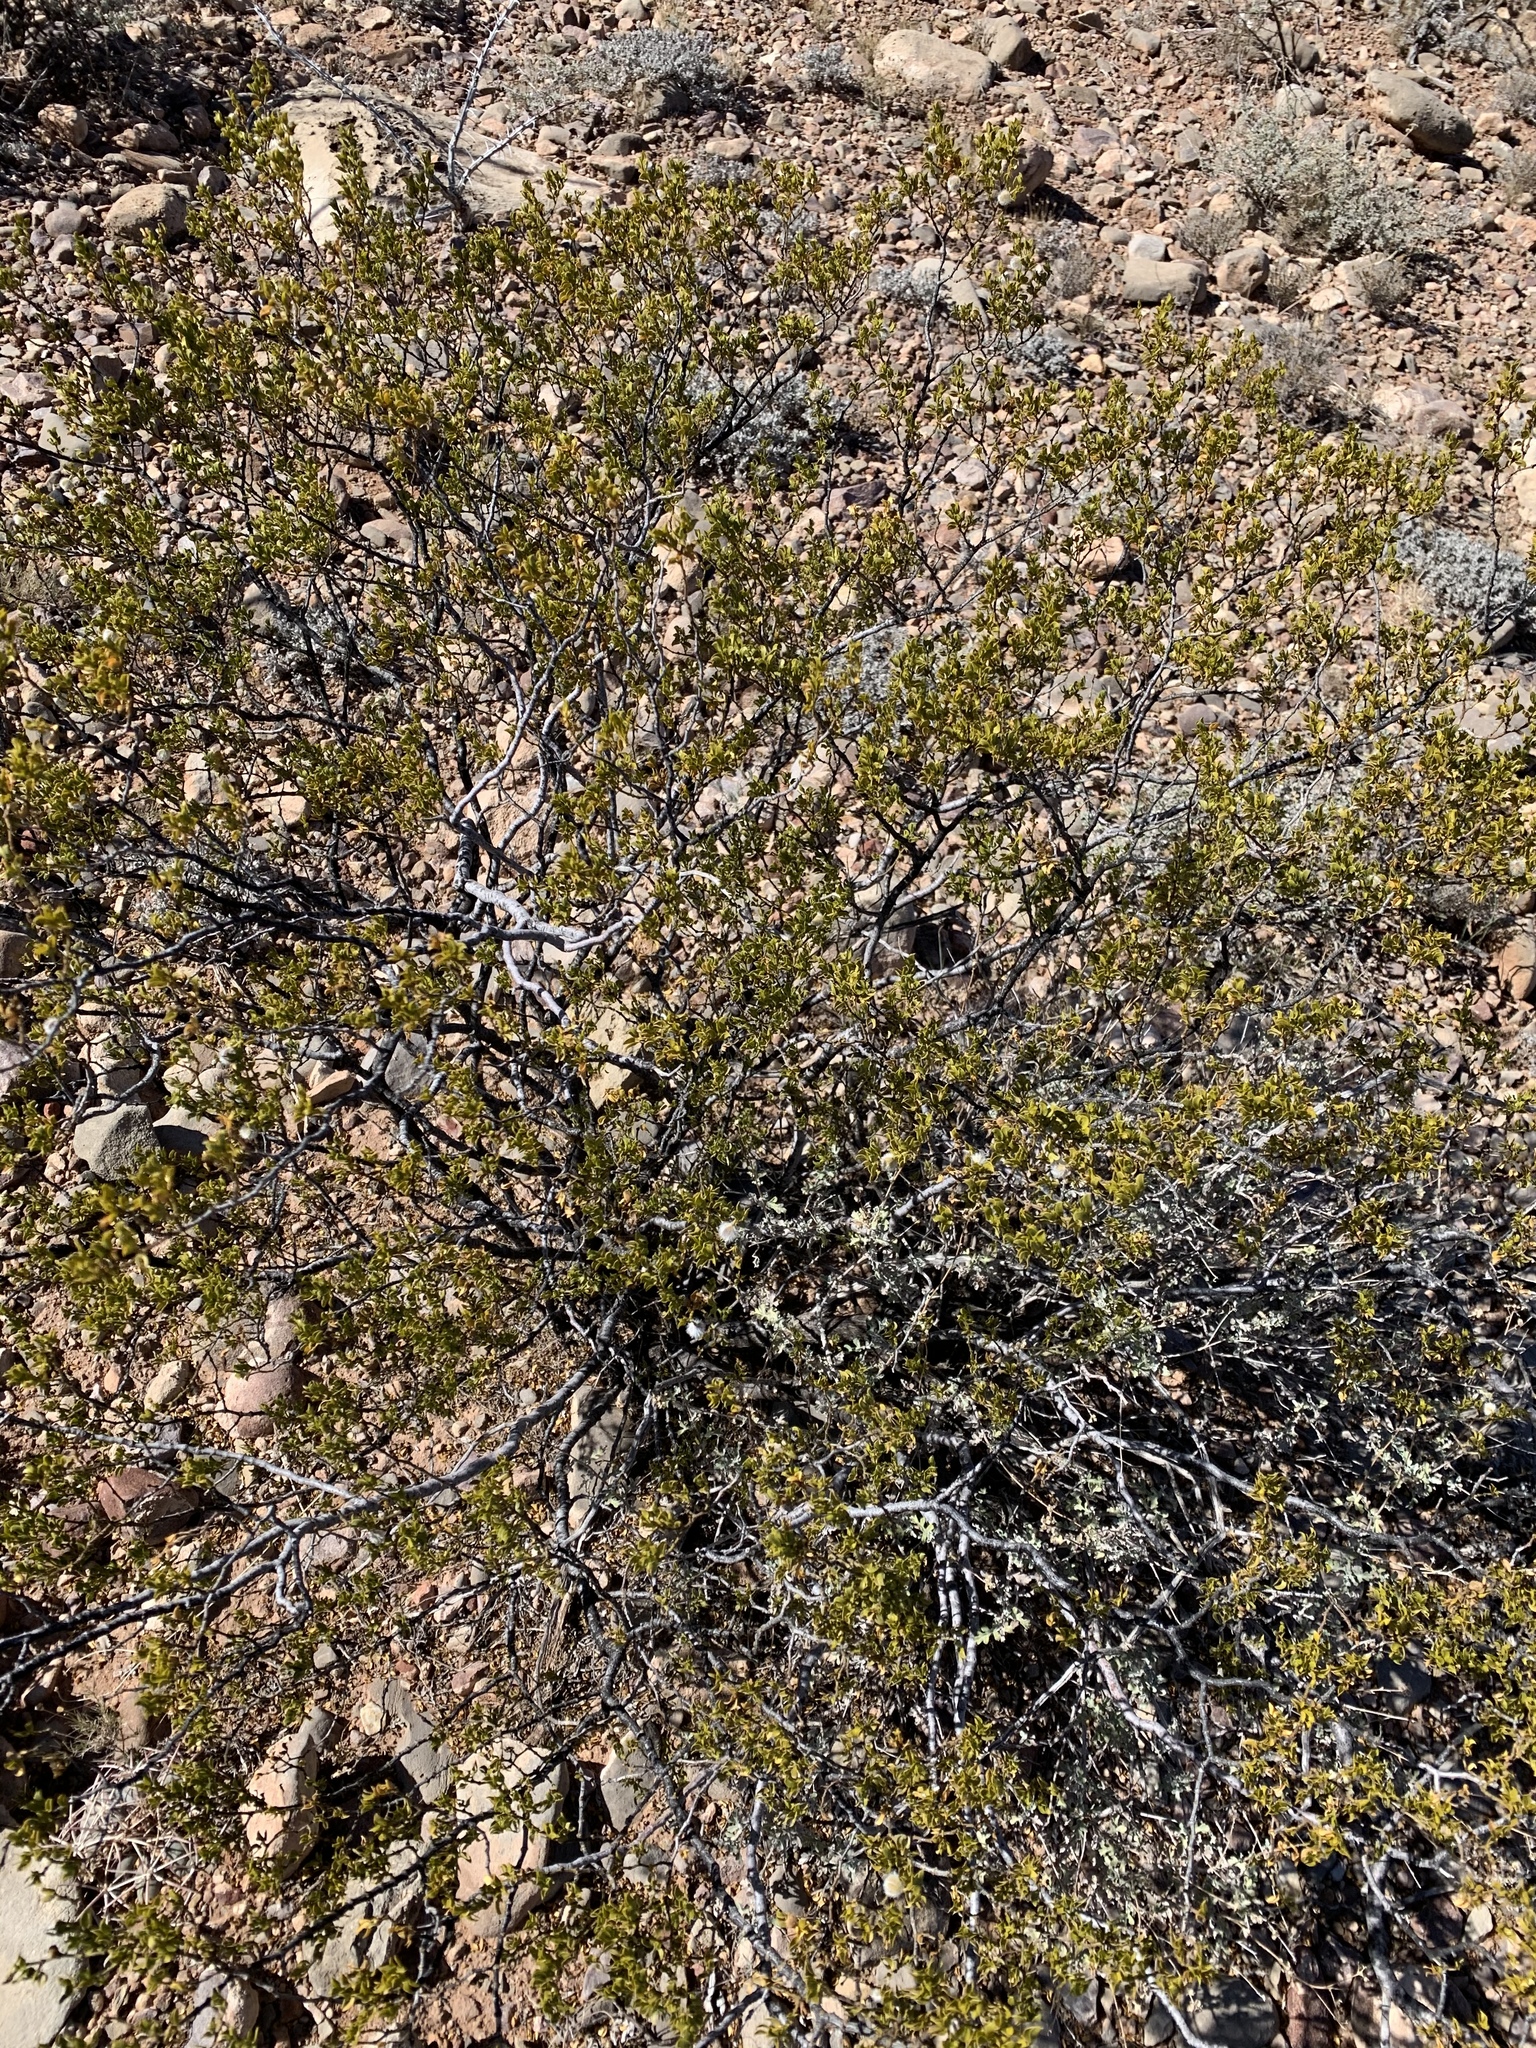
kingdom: Plantae
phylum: Tracheophyta
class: Magnoliopsida
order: Zygophyllales
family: Zygophyllaceae
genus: Larrea
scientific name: Larrea tridentata
